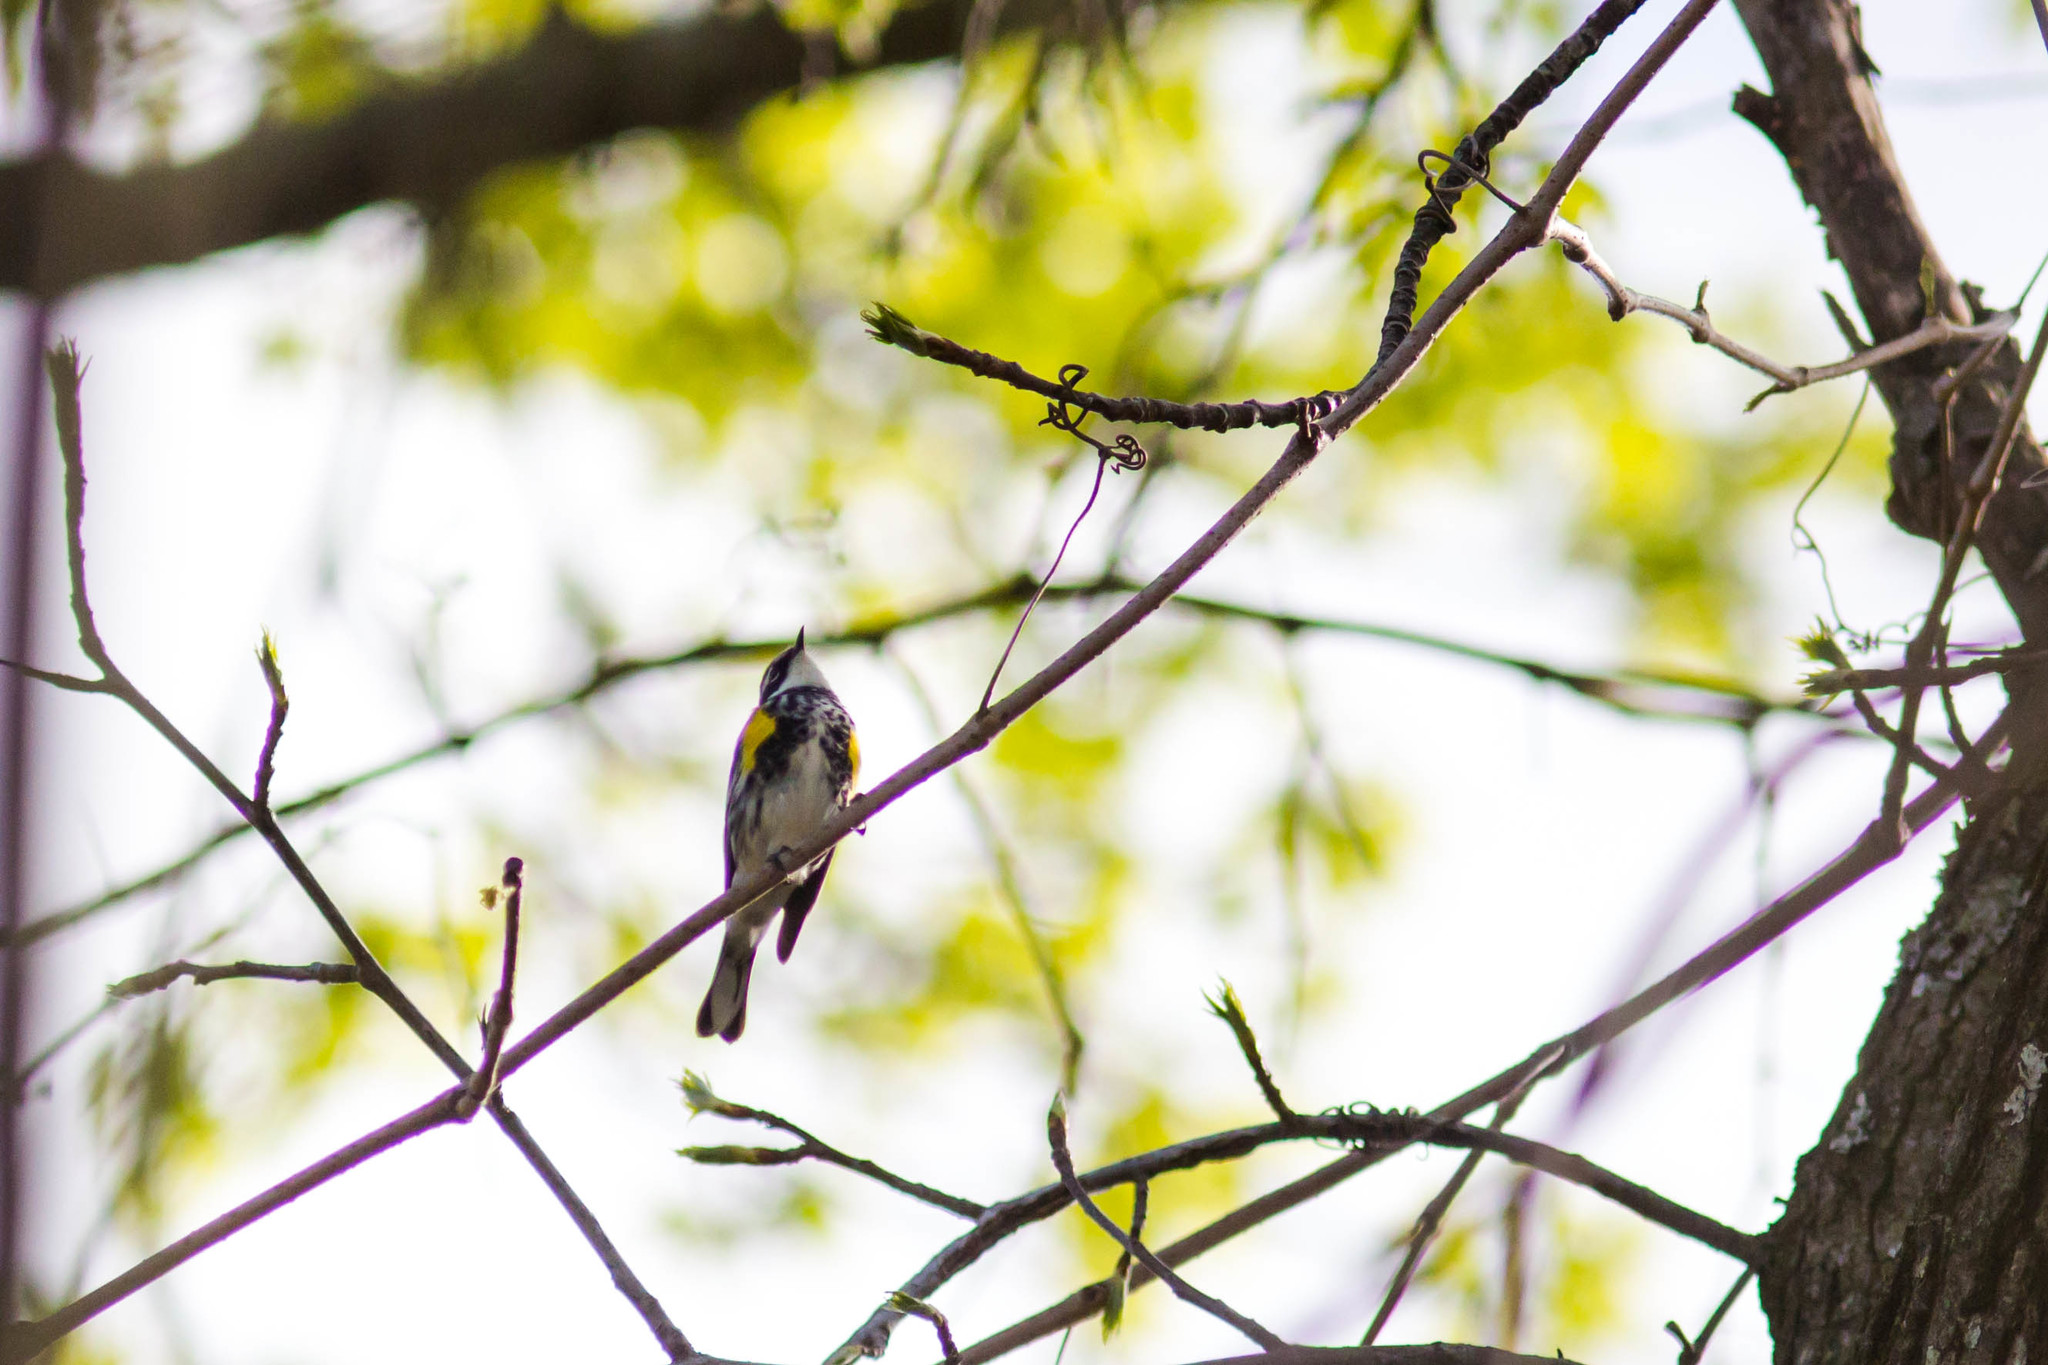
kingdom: Animalia
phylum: Chordata
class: Aves
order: Passeriformes
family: Parulidae
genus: Setophaga
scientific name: Setophaga coronata
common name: Myrtle warbler
